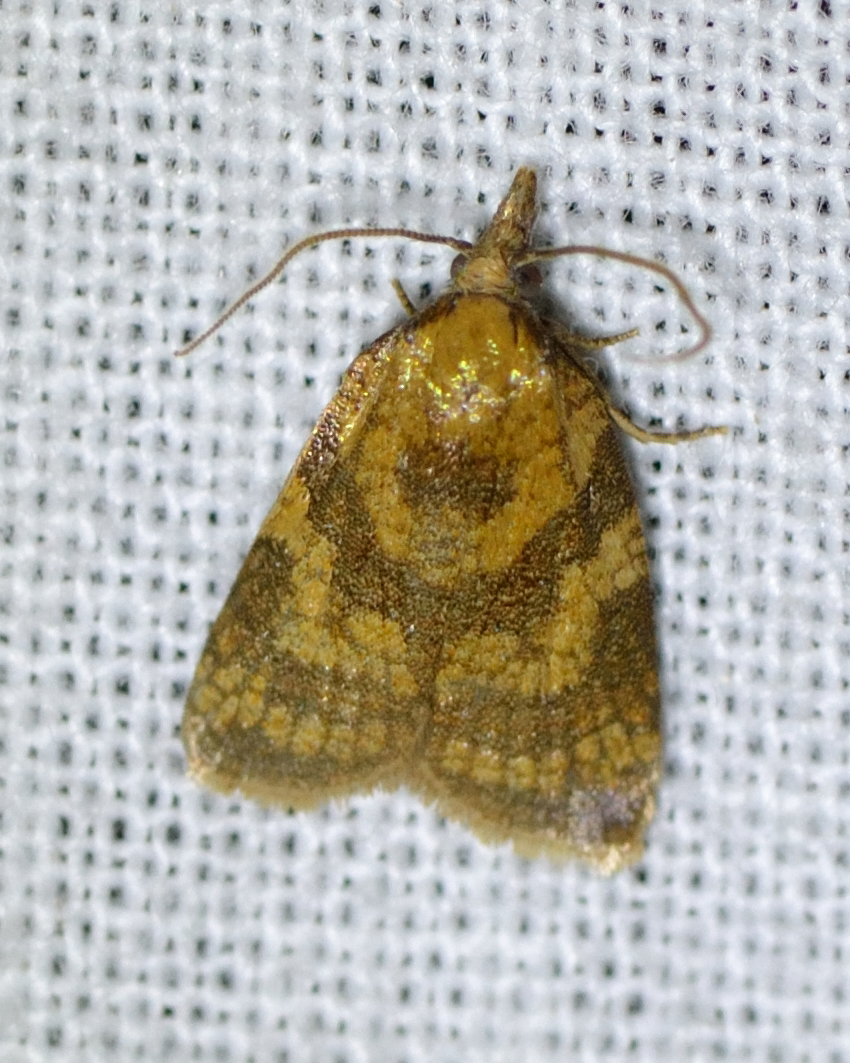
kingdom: Animalia
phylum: Arthropoda
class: Insecta
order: Lepidoptera
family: Tortricidae
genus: Sparganothis
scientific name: Sparganothis pilleriana
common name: Vine leaf-roller tortrix, long-nosed twist
